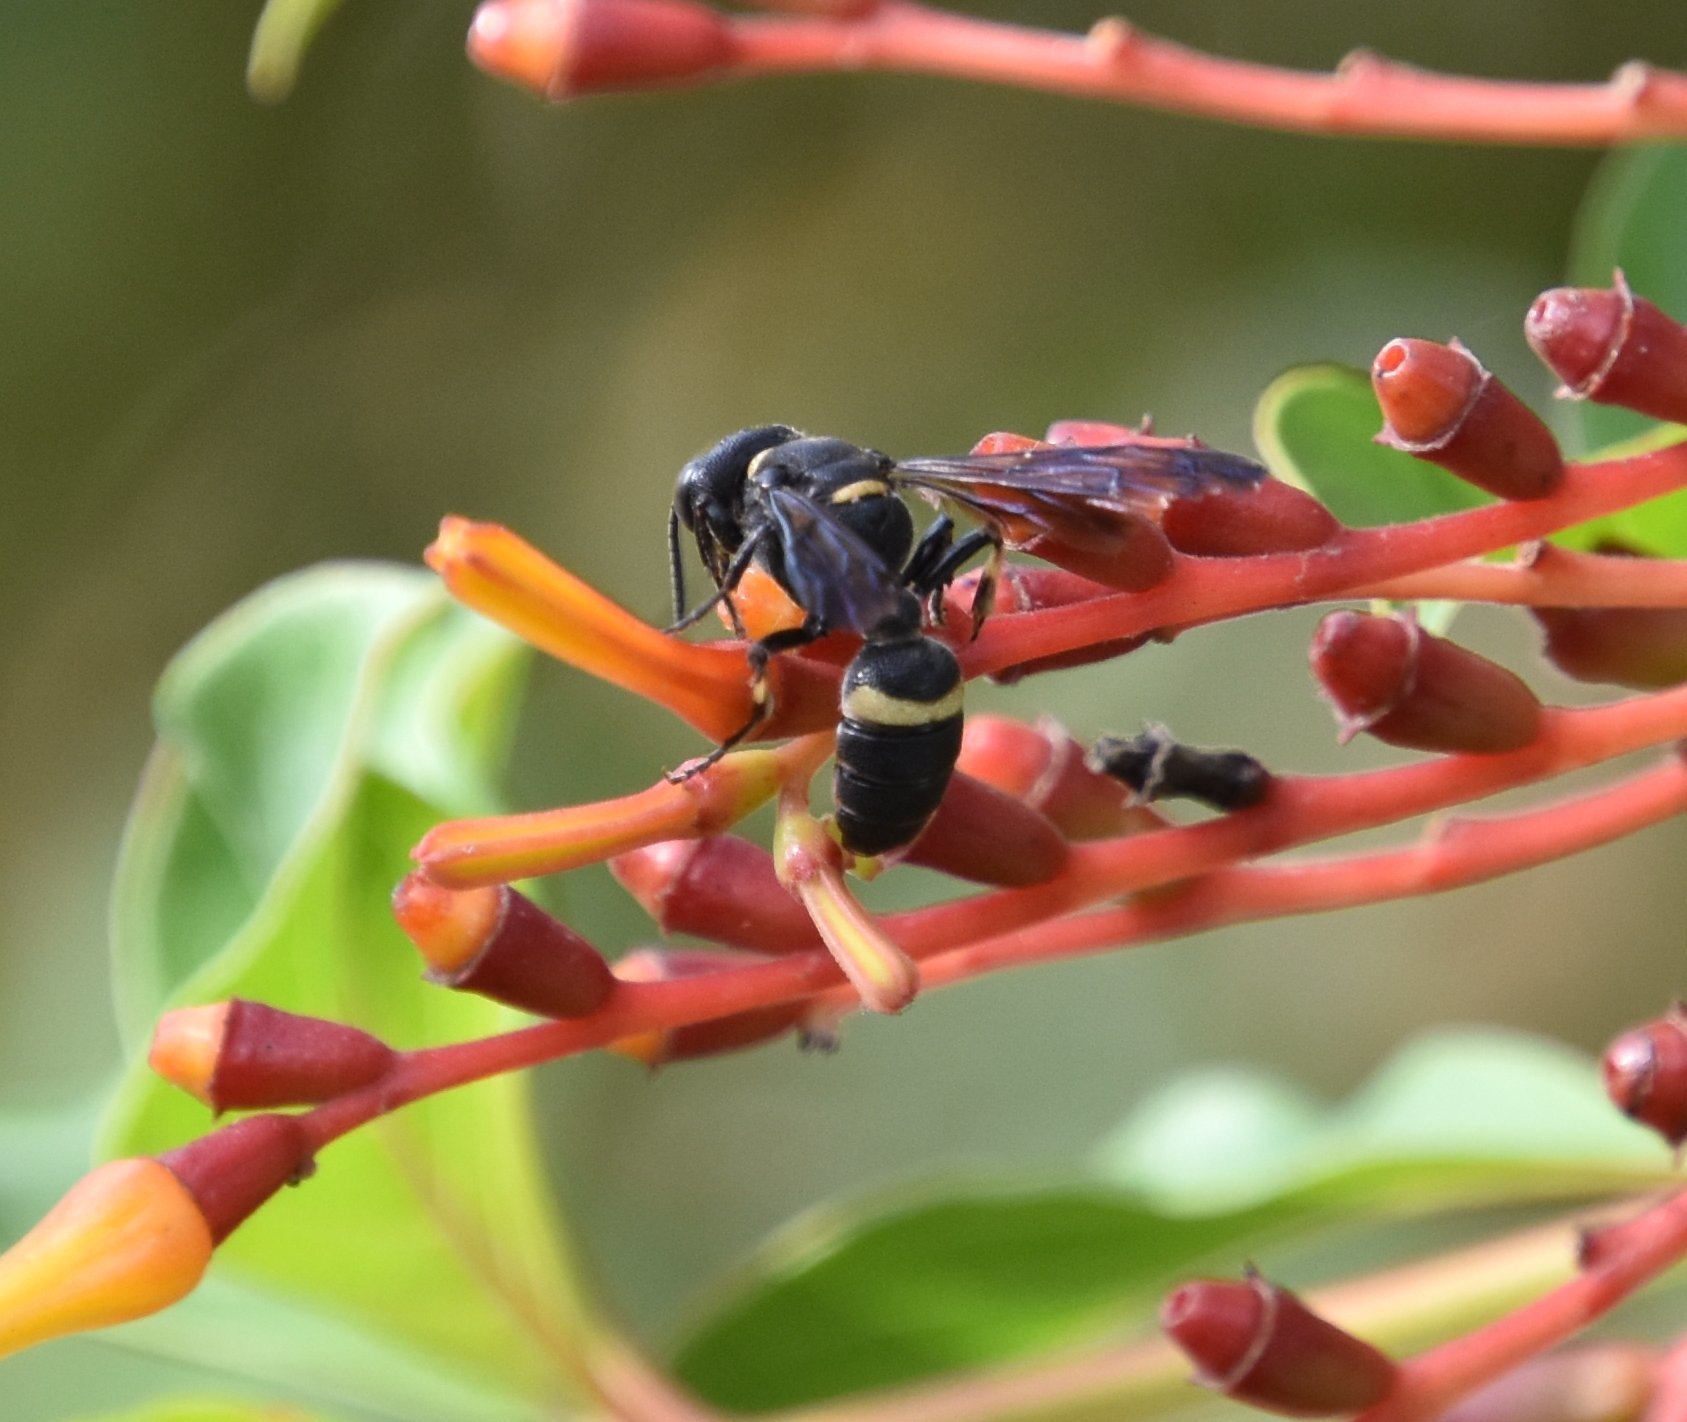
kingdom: Animalia
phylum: Arthropoda
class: Insecta
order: Hymenoptera
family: Crabronidae
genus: Cerceris
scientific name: Cerceris fumipennis
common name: Smokey-winged beetle bandit wasp
